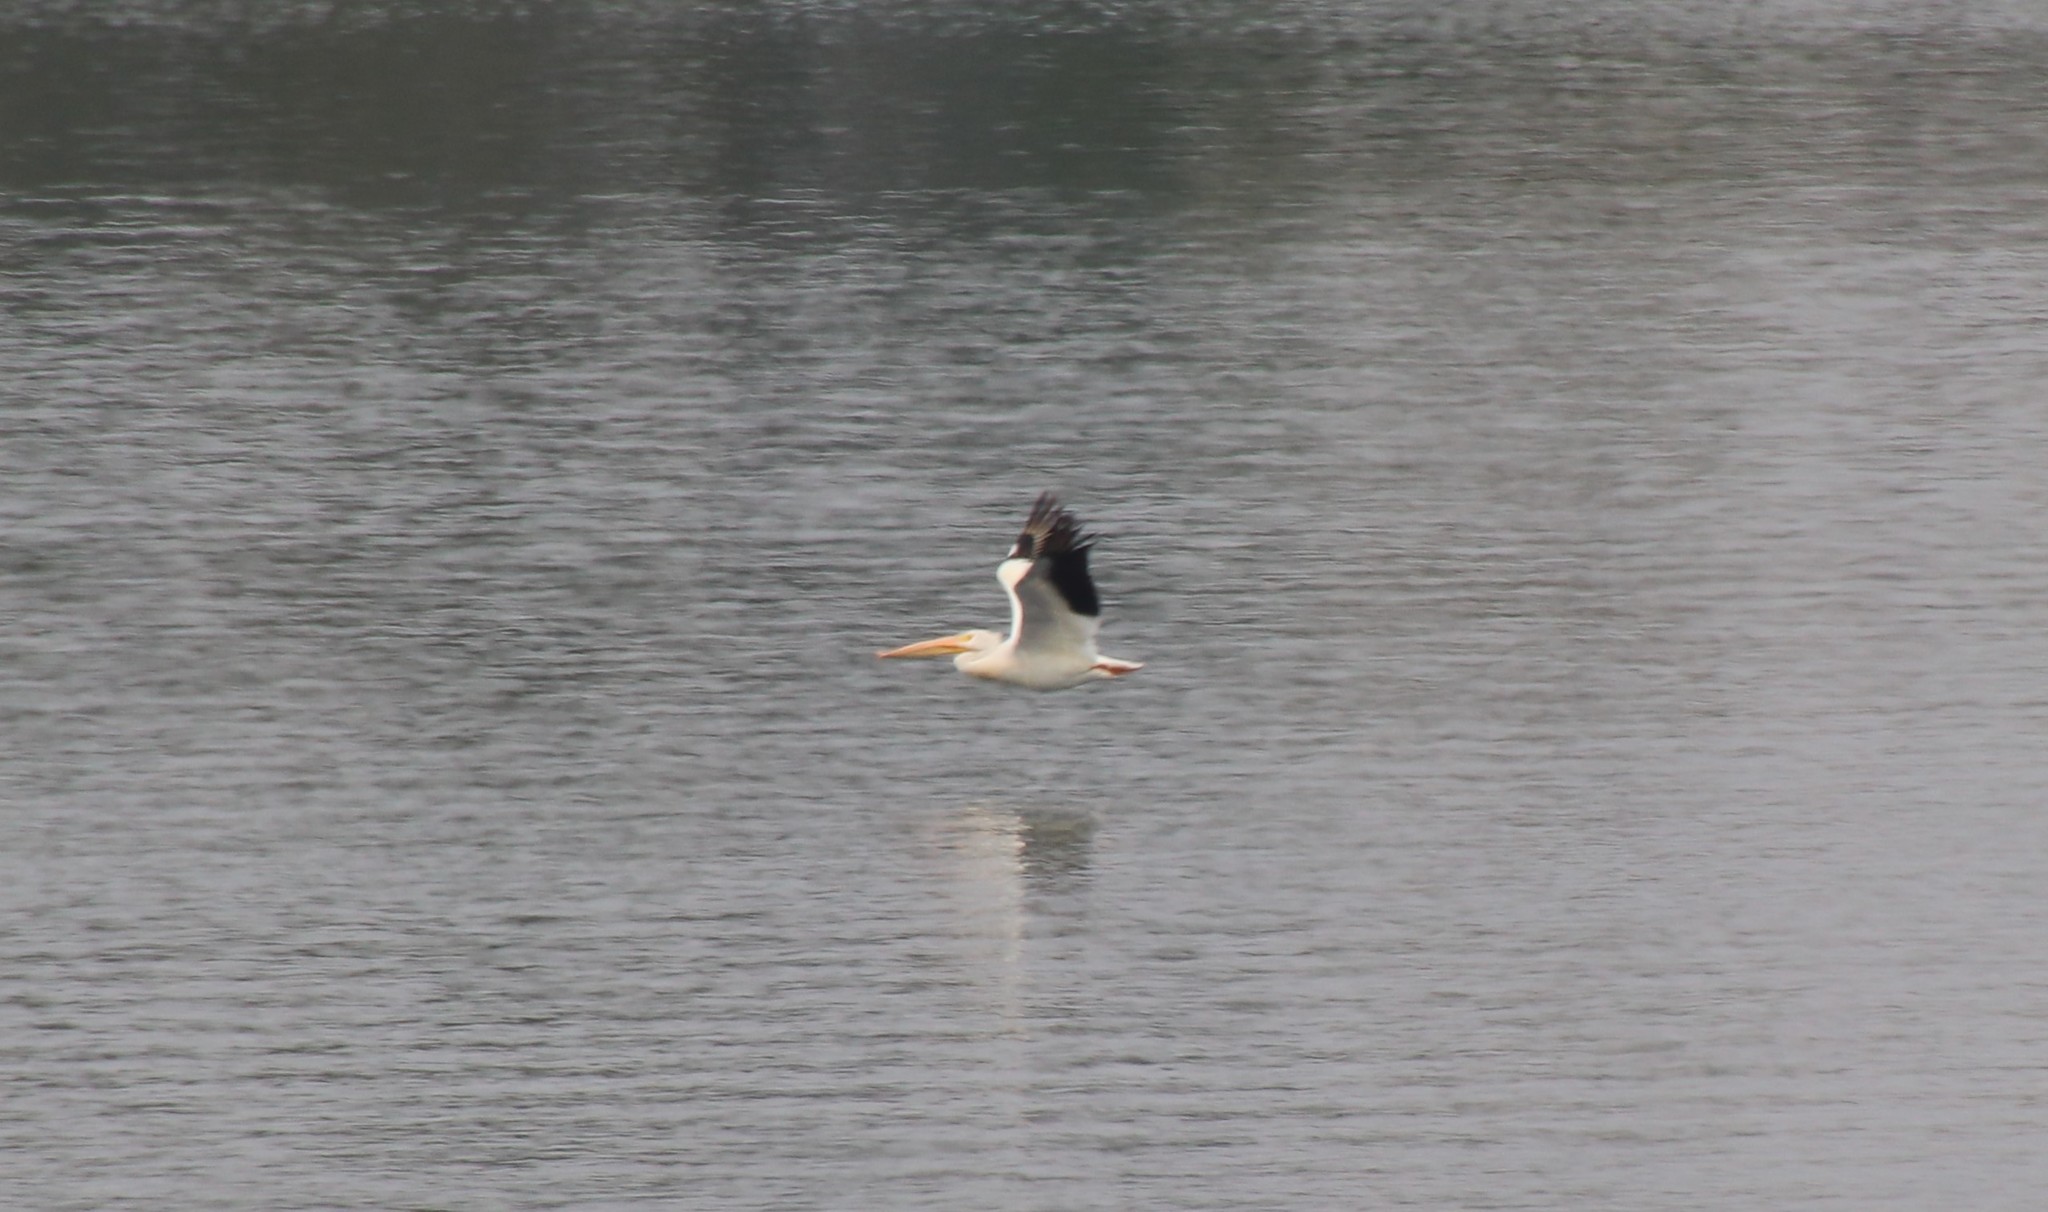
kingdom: Animalia
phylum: Chordata
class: Aves
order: Pelecaniformes
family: Pelecanidae
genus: Pelecanus
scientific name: Pelecanus erythrorhynchos
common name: American white pelican
